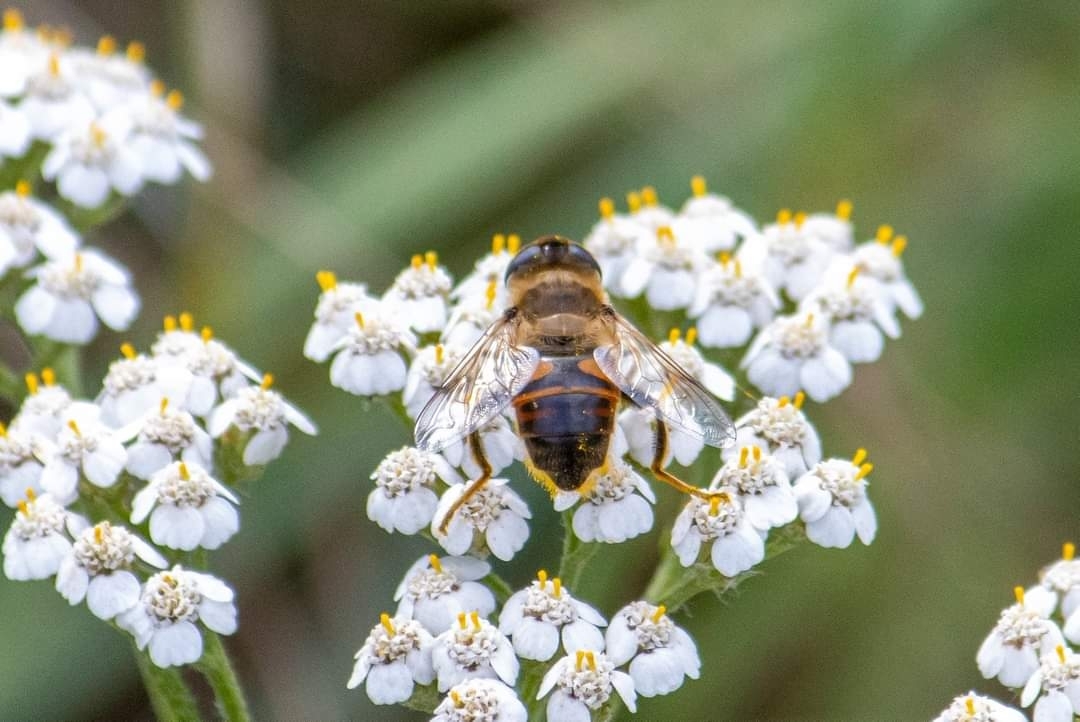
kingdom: Animalia
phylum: Arthropoda
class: Insecta
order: Diptera
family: Syrphidae
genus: Eristalis
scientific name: Eristalis tenax
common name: Drone fly
